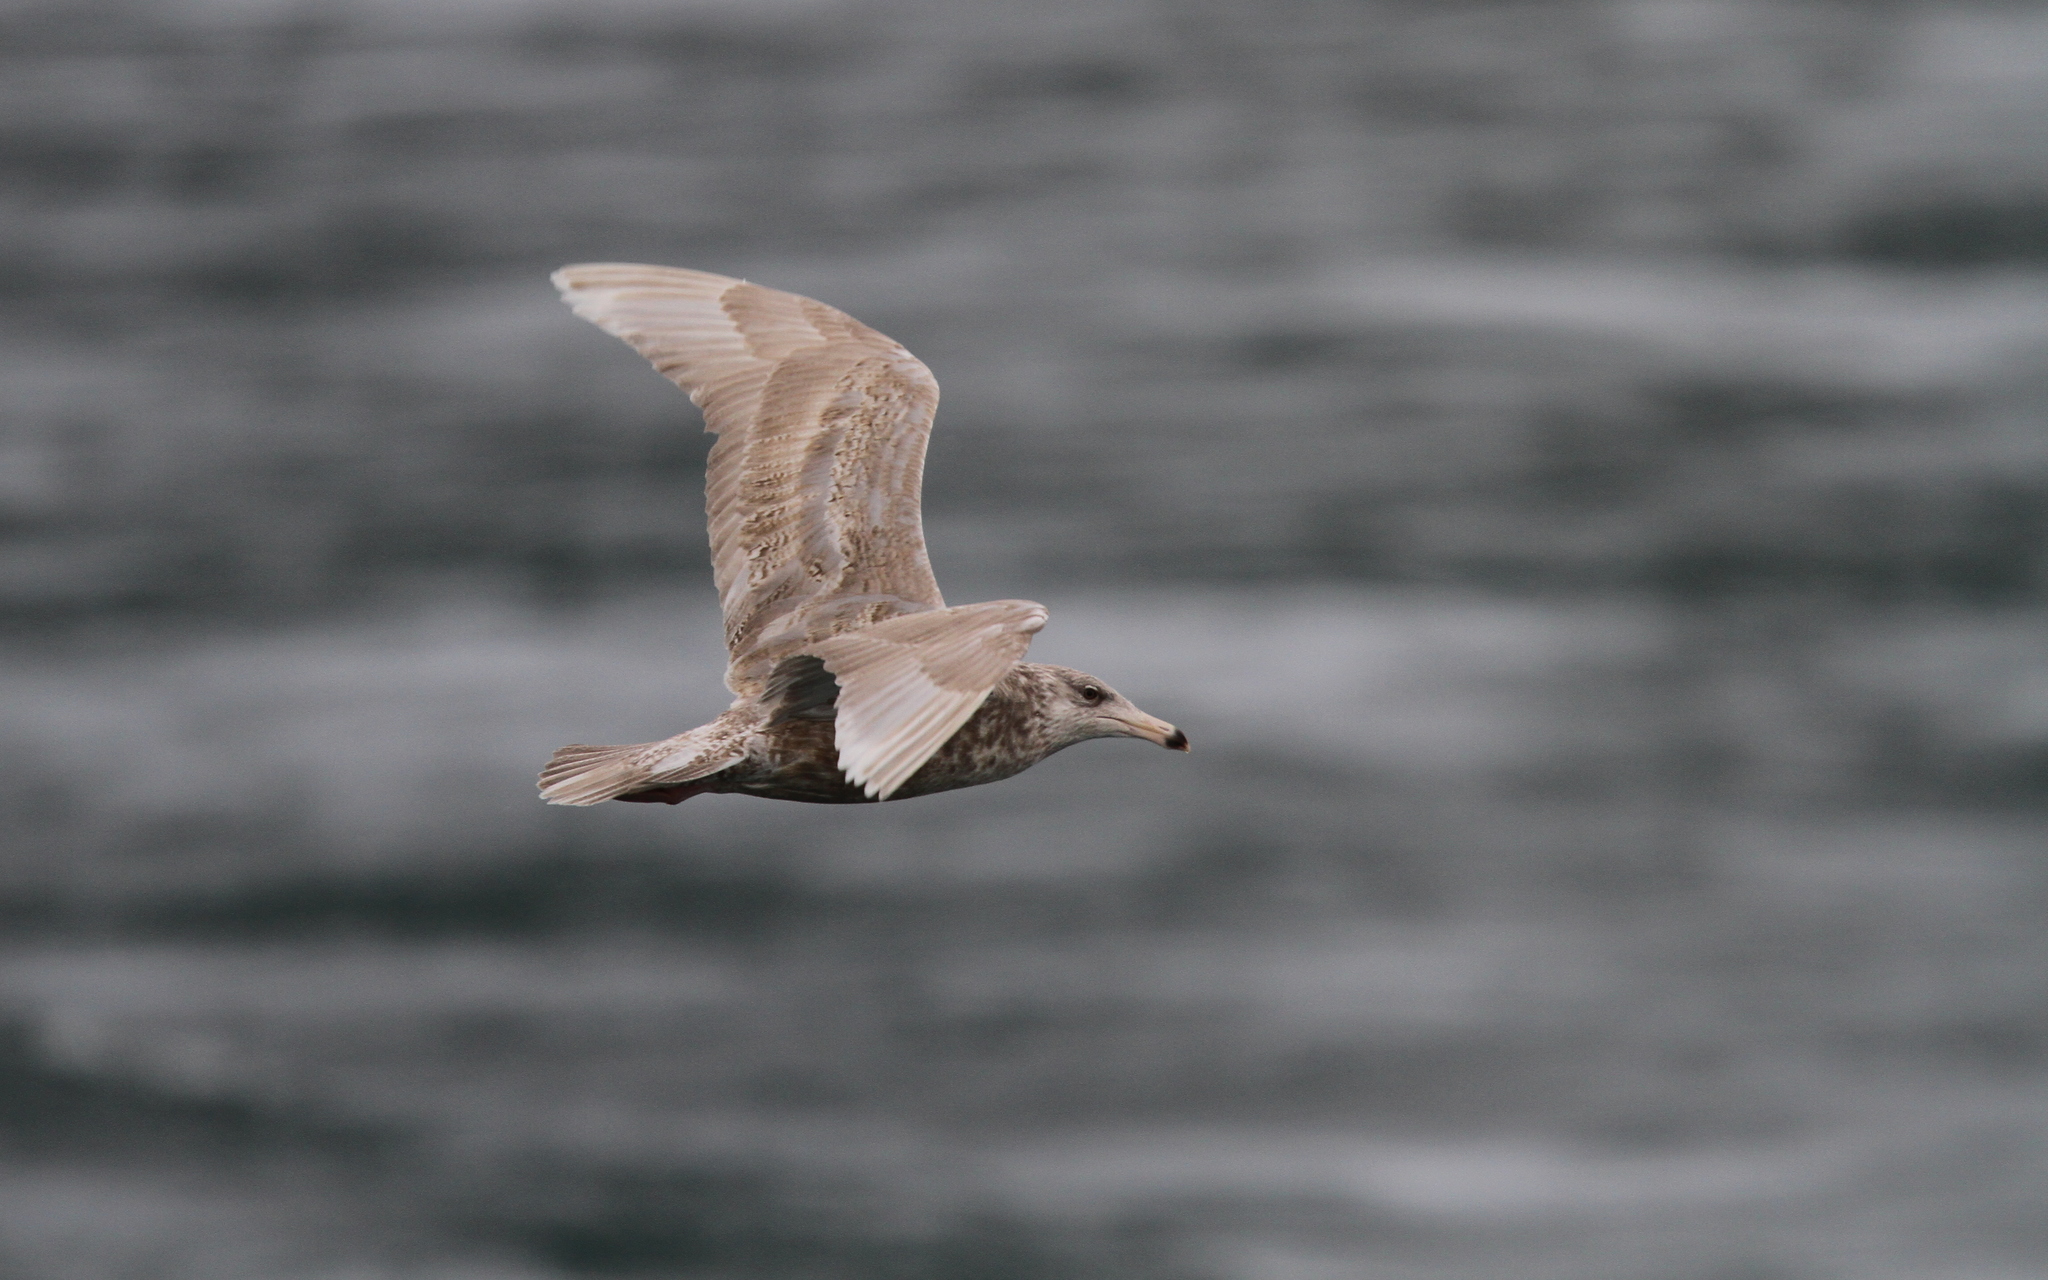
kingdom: Animalia
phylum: Chordata
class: Aves
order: Charadriiformes
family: Laridae
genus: Larus
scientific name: Larus hyperboreus
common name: Glaucous gull
